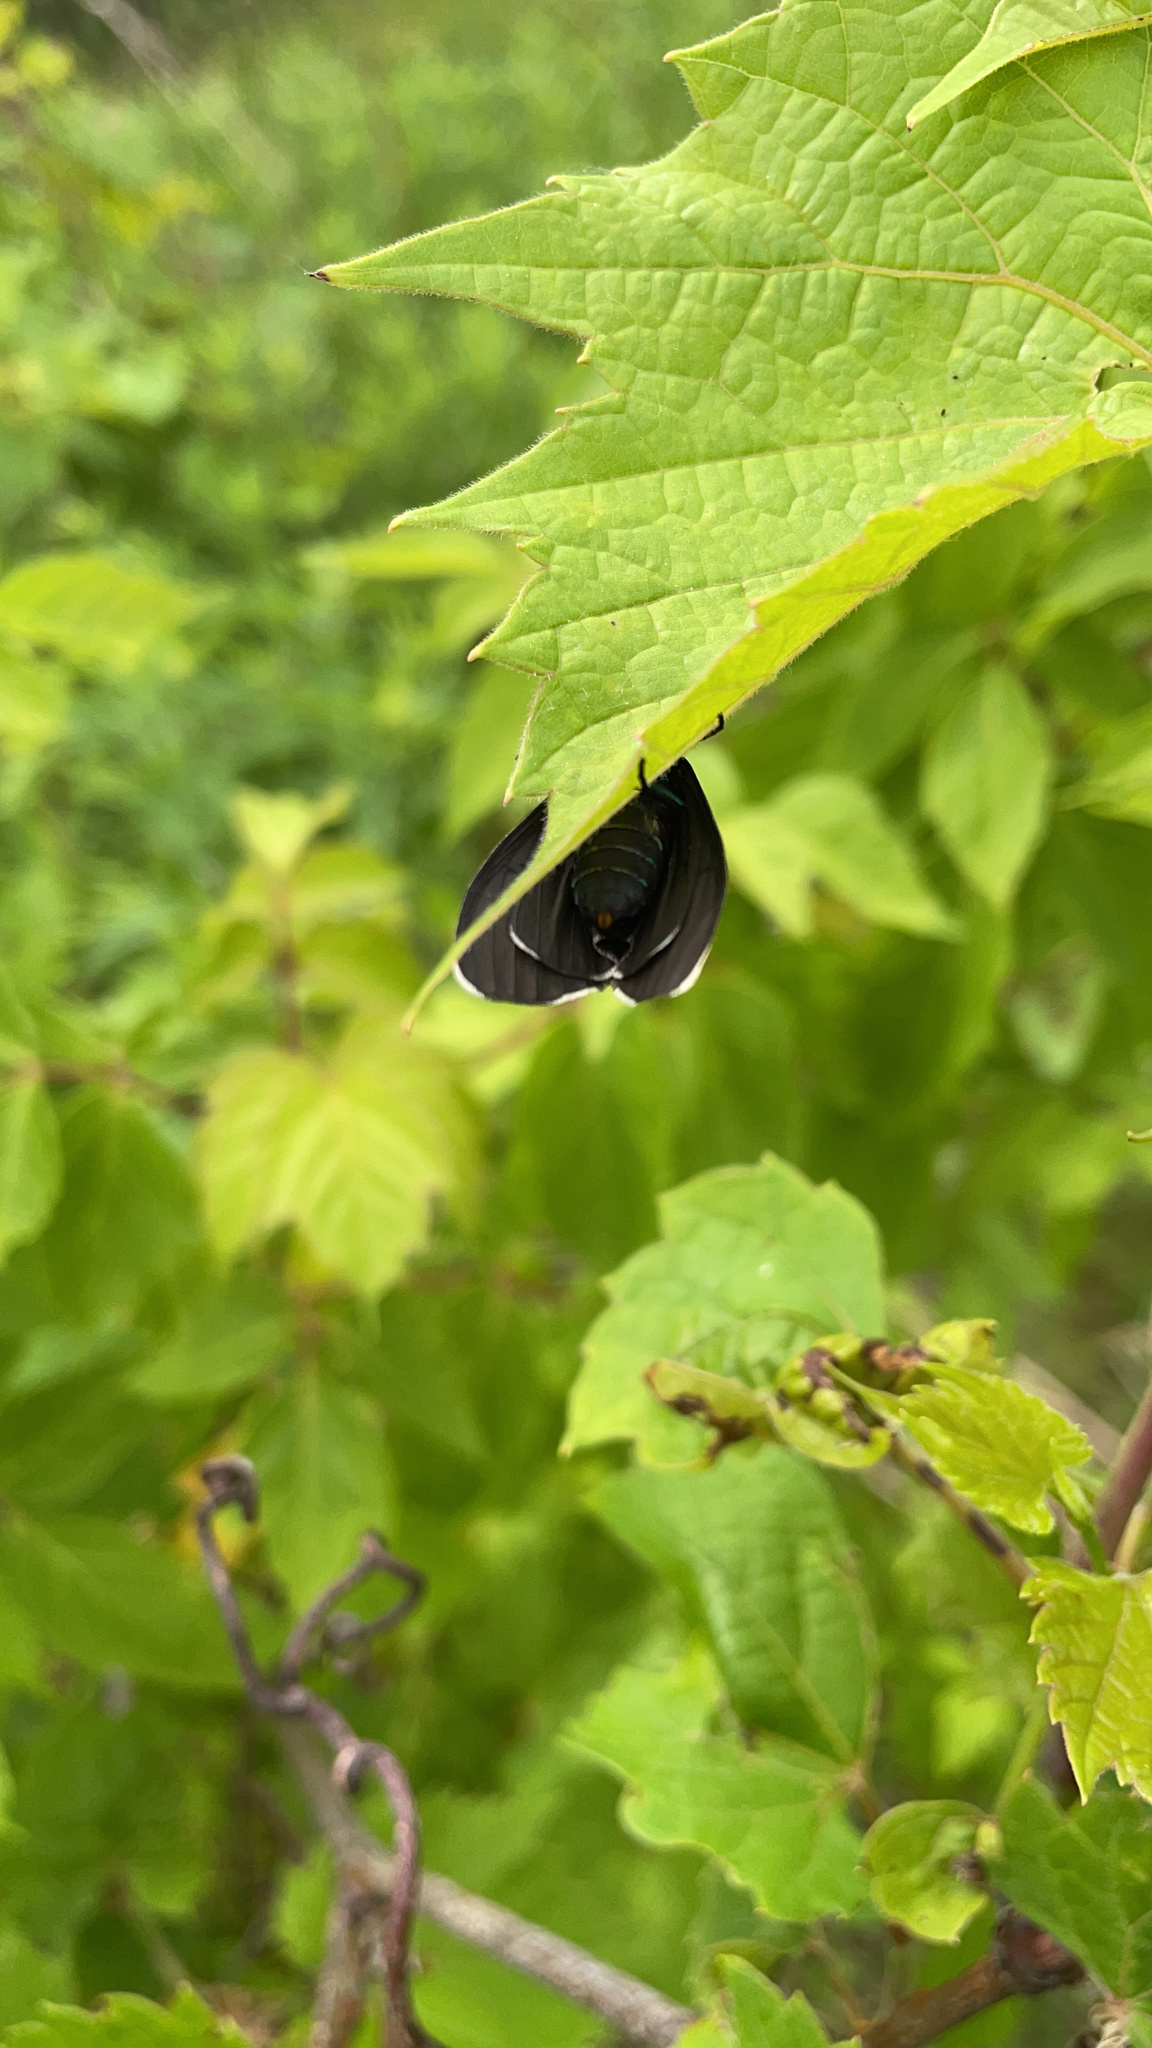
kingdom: Animalia
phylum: Arthropoda
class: Insecta
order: Lepidoptera
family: Erebidae
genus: Ctenucha
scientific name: Ctenucha virginica
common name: Virginia ctenucha moth
